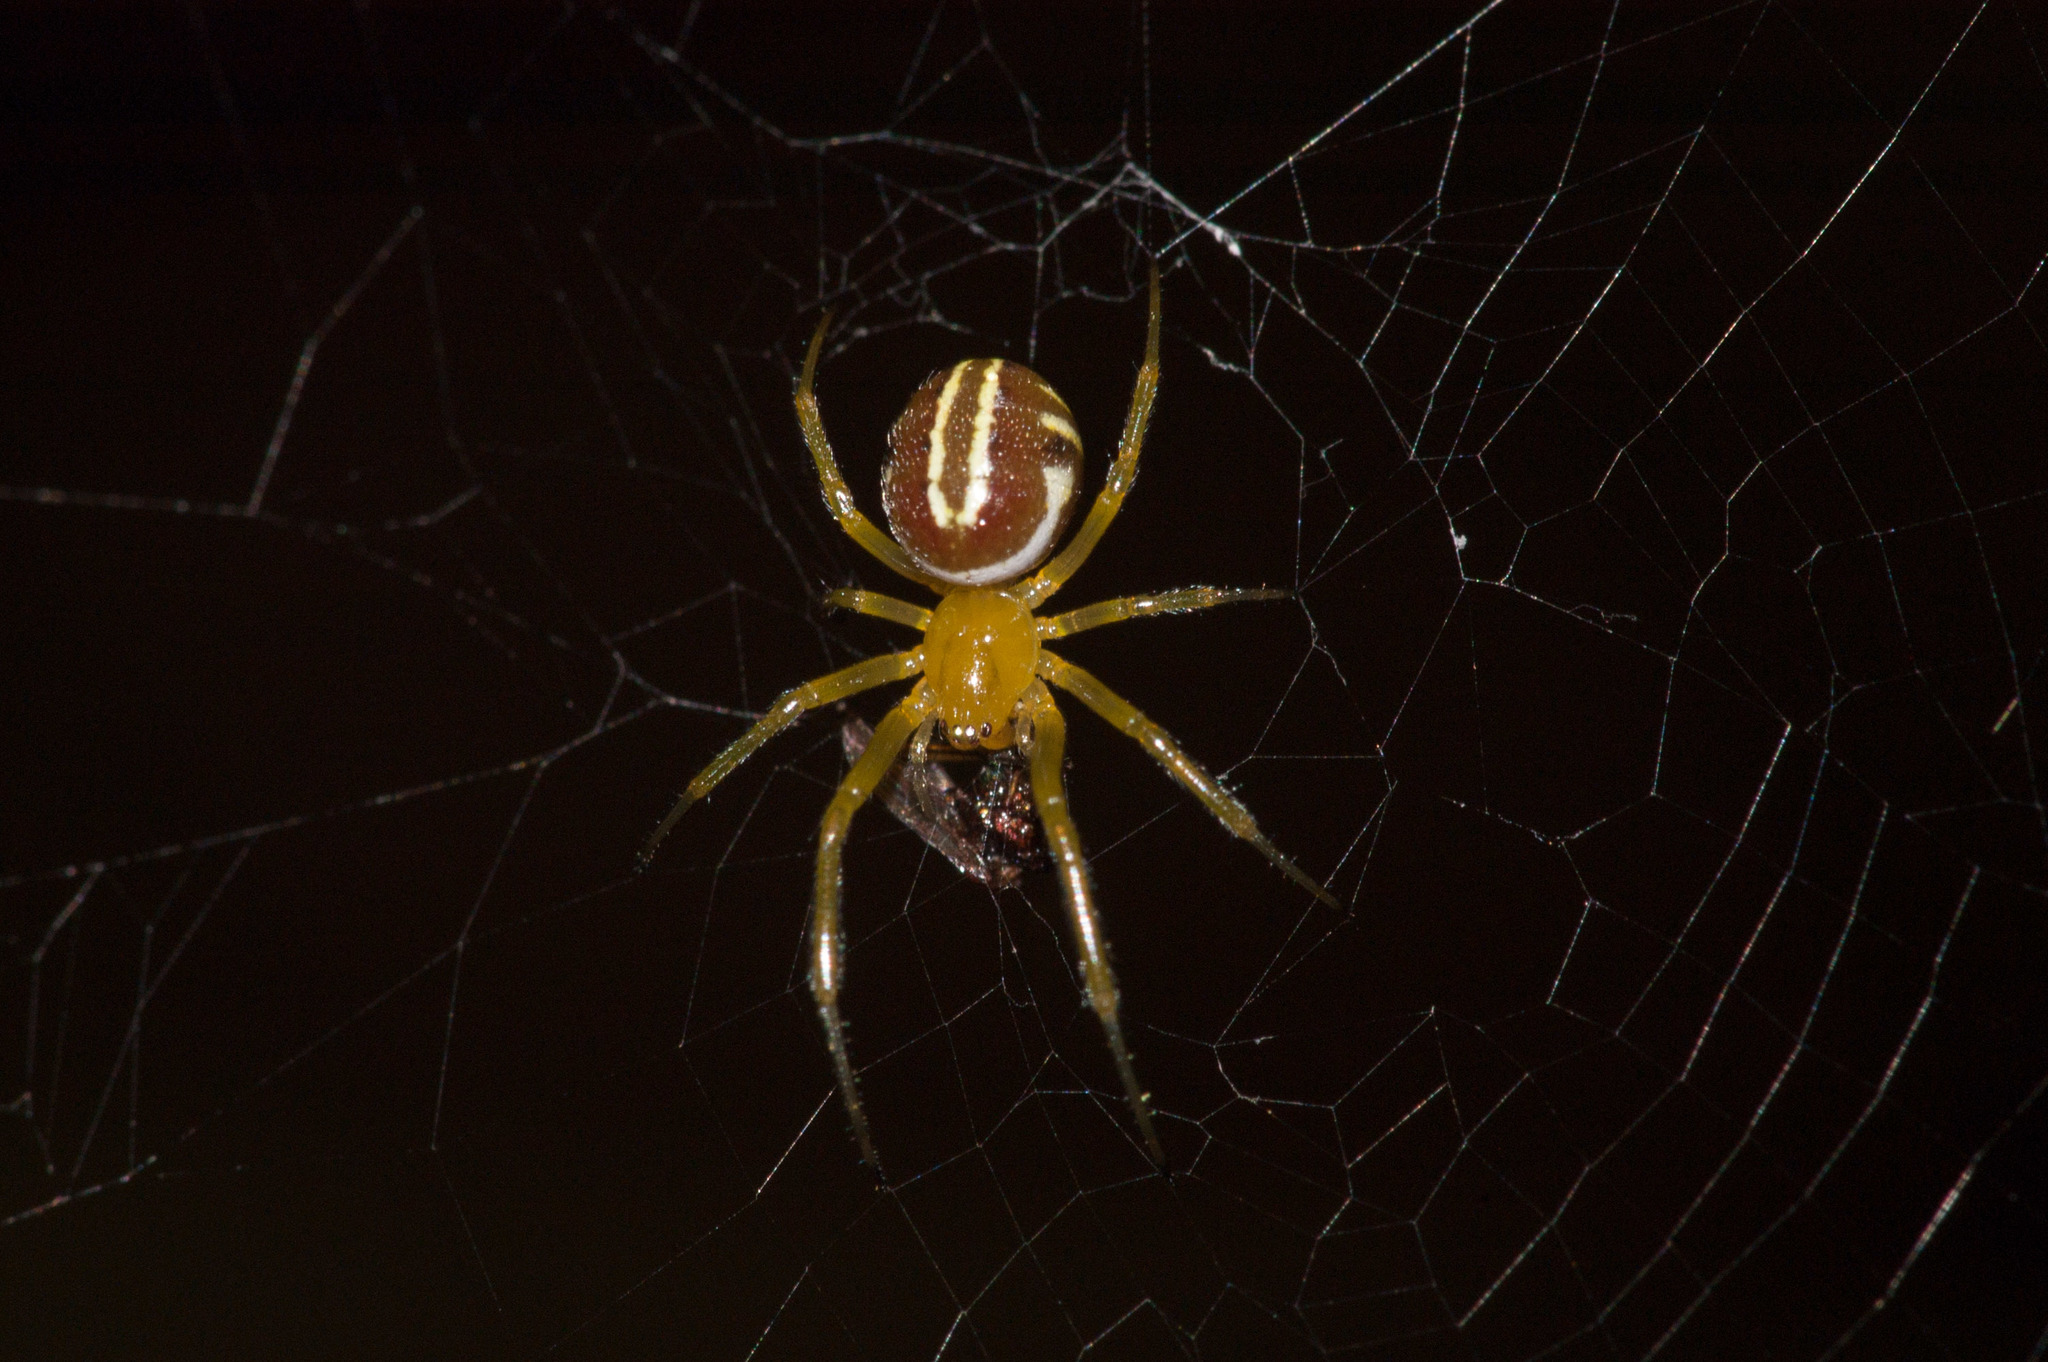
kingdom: Animalia
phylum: Arthropoda
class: Arachnida
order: Araneae
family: Araneidae
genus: Deliochus
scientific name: Deliochus zelivira
